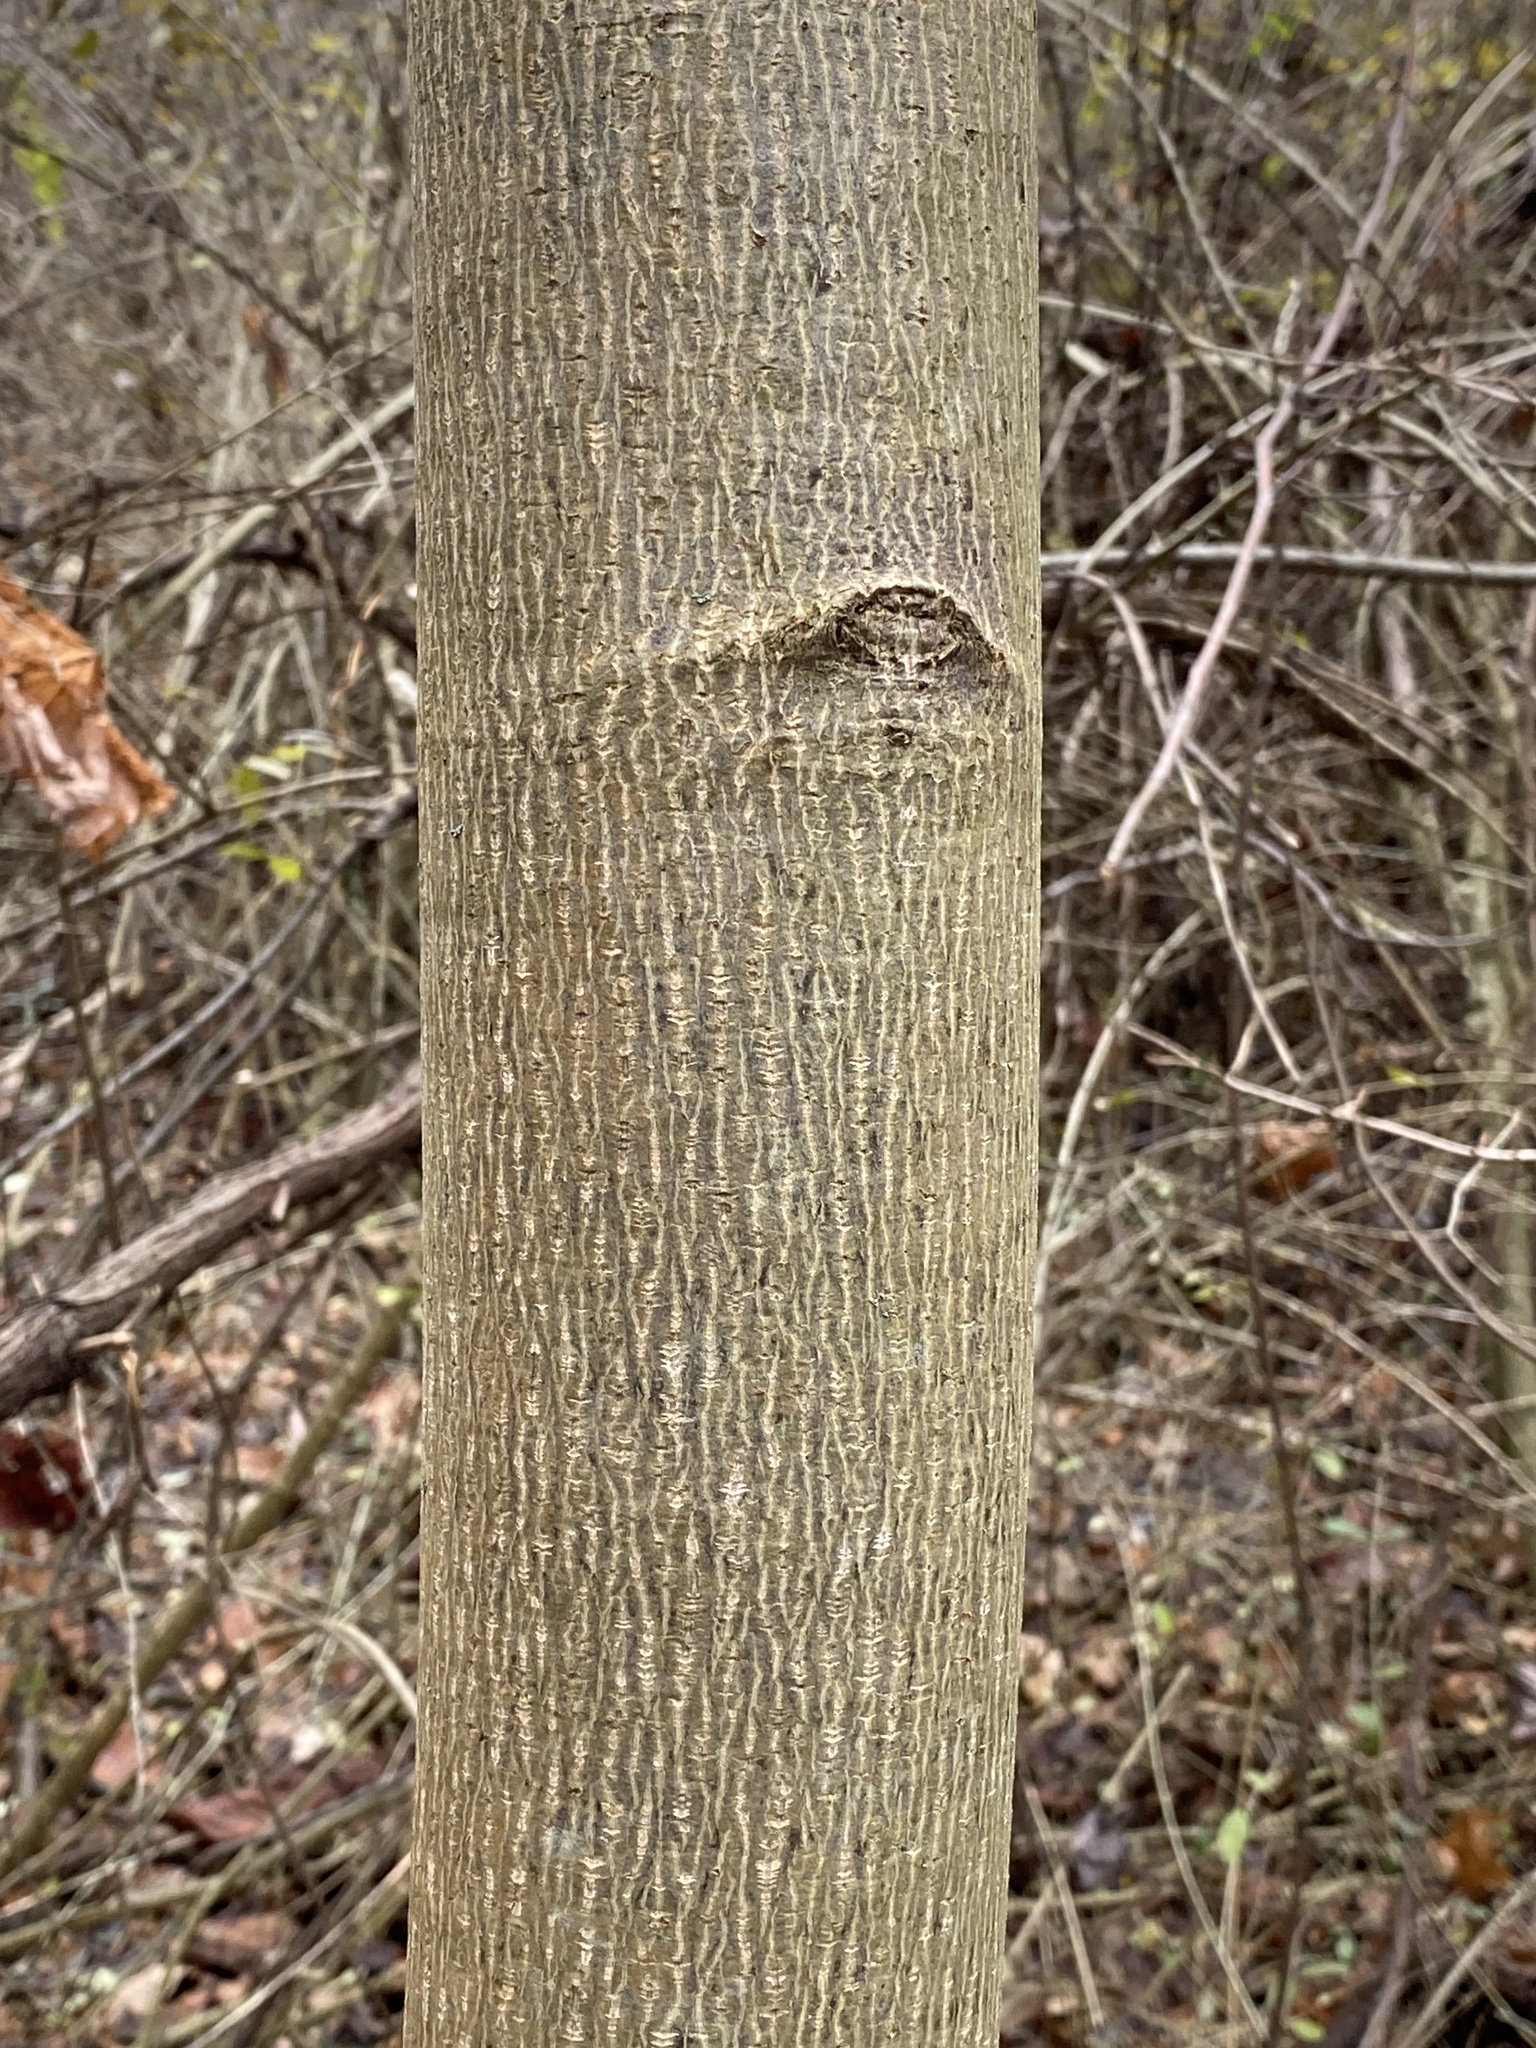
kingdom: Plantae
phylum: Tracheophyta
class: Magnoliopsida
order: Magnoliales
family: Magnoliaceae
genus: Liriodendron
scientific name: Liriodendron tulipifera
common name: Tulip tree
